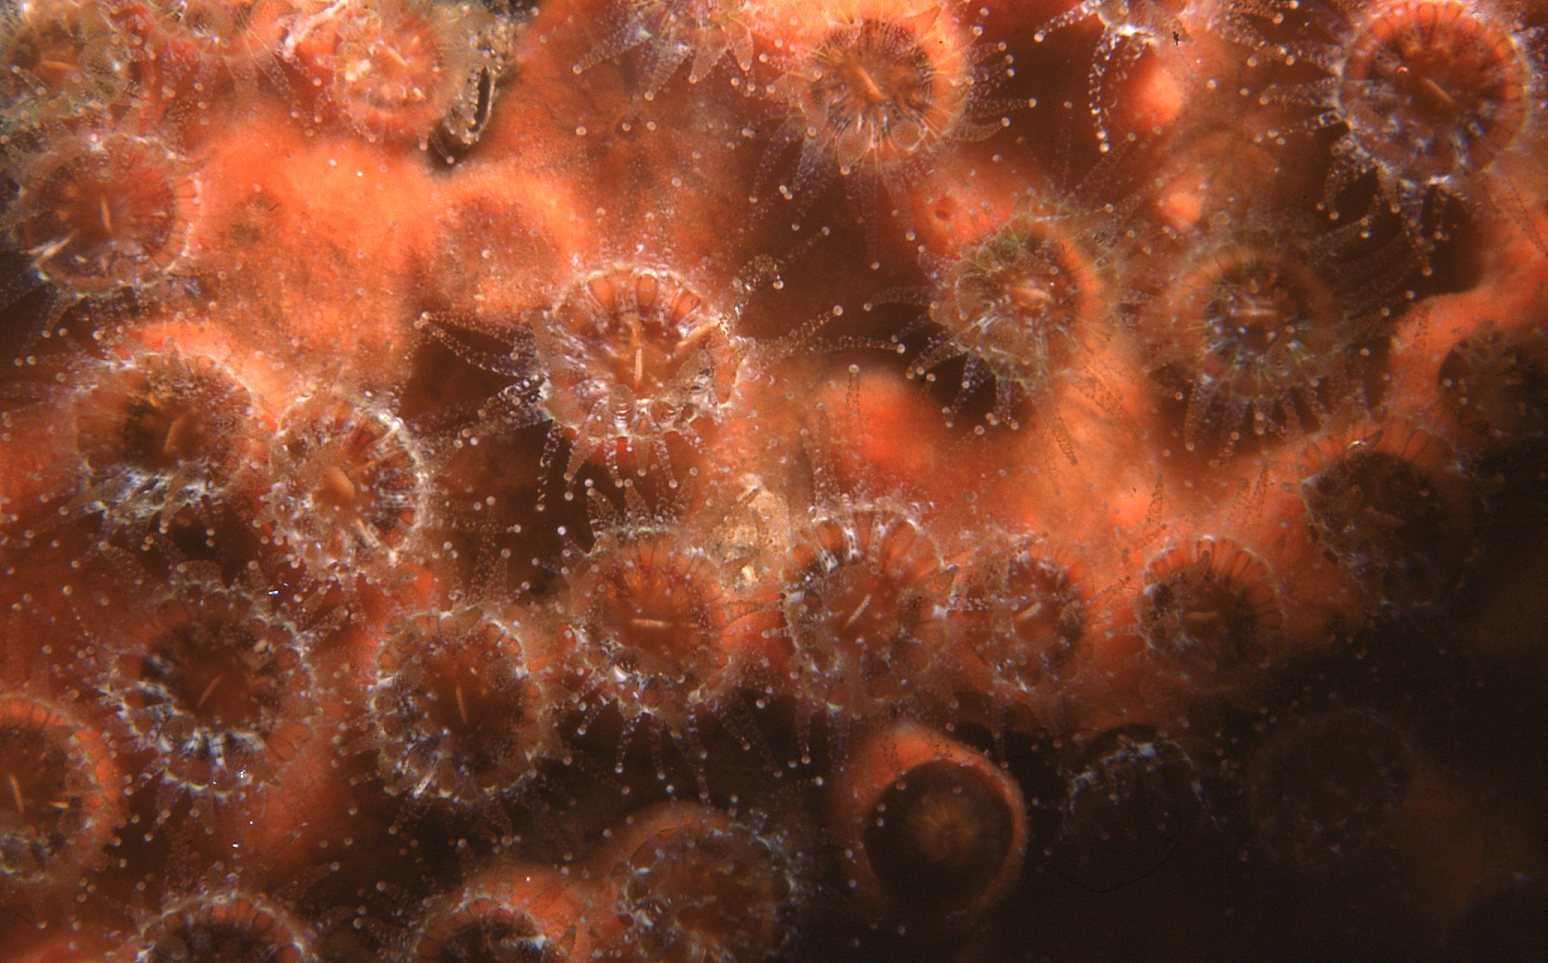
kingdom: Animalia
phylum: Cnidaria
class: Anthozoa
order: Scleractinia
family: Rhizangiidae
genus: Culicia
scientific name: Culicia tenella
